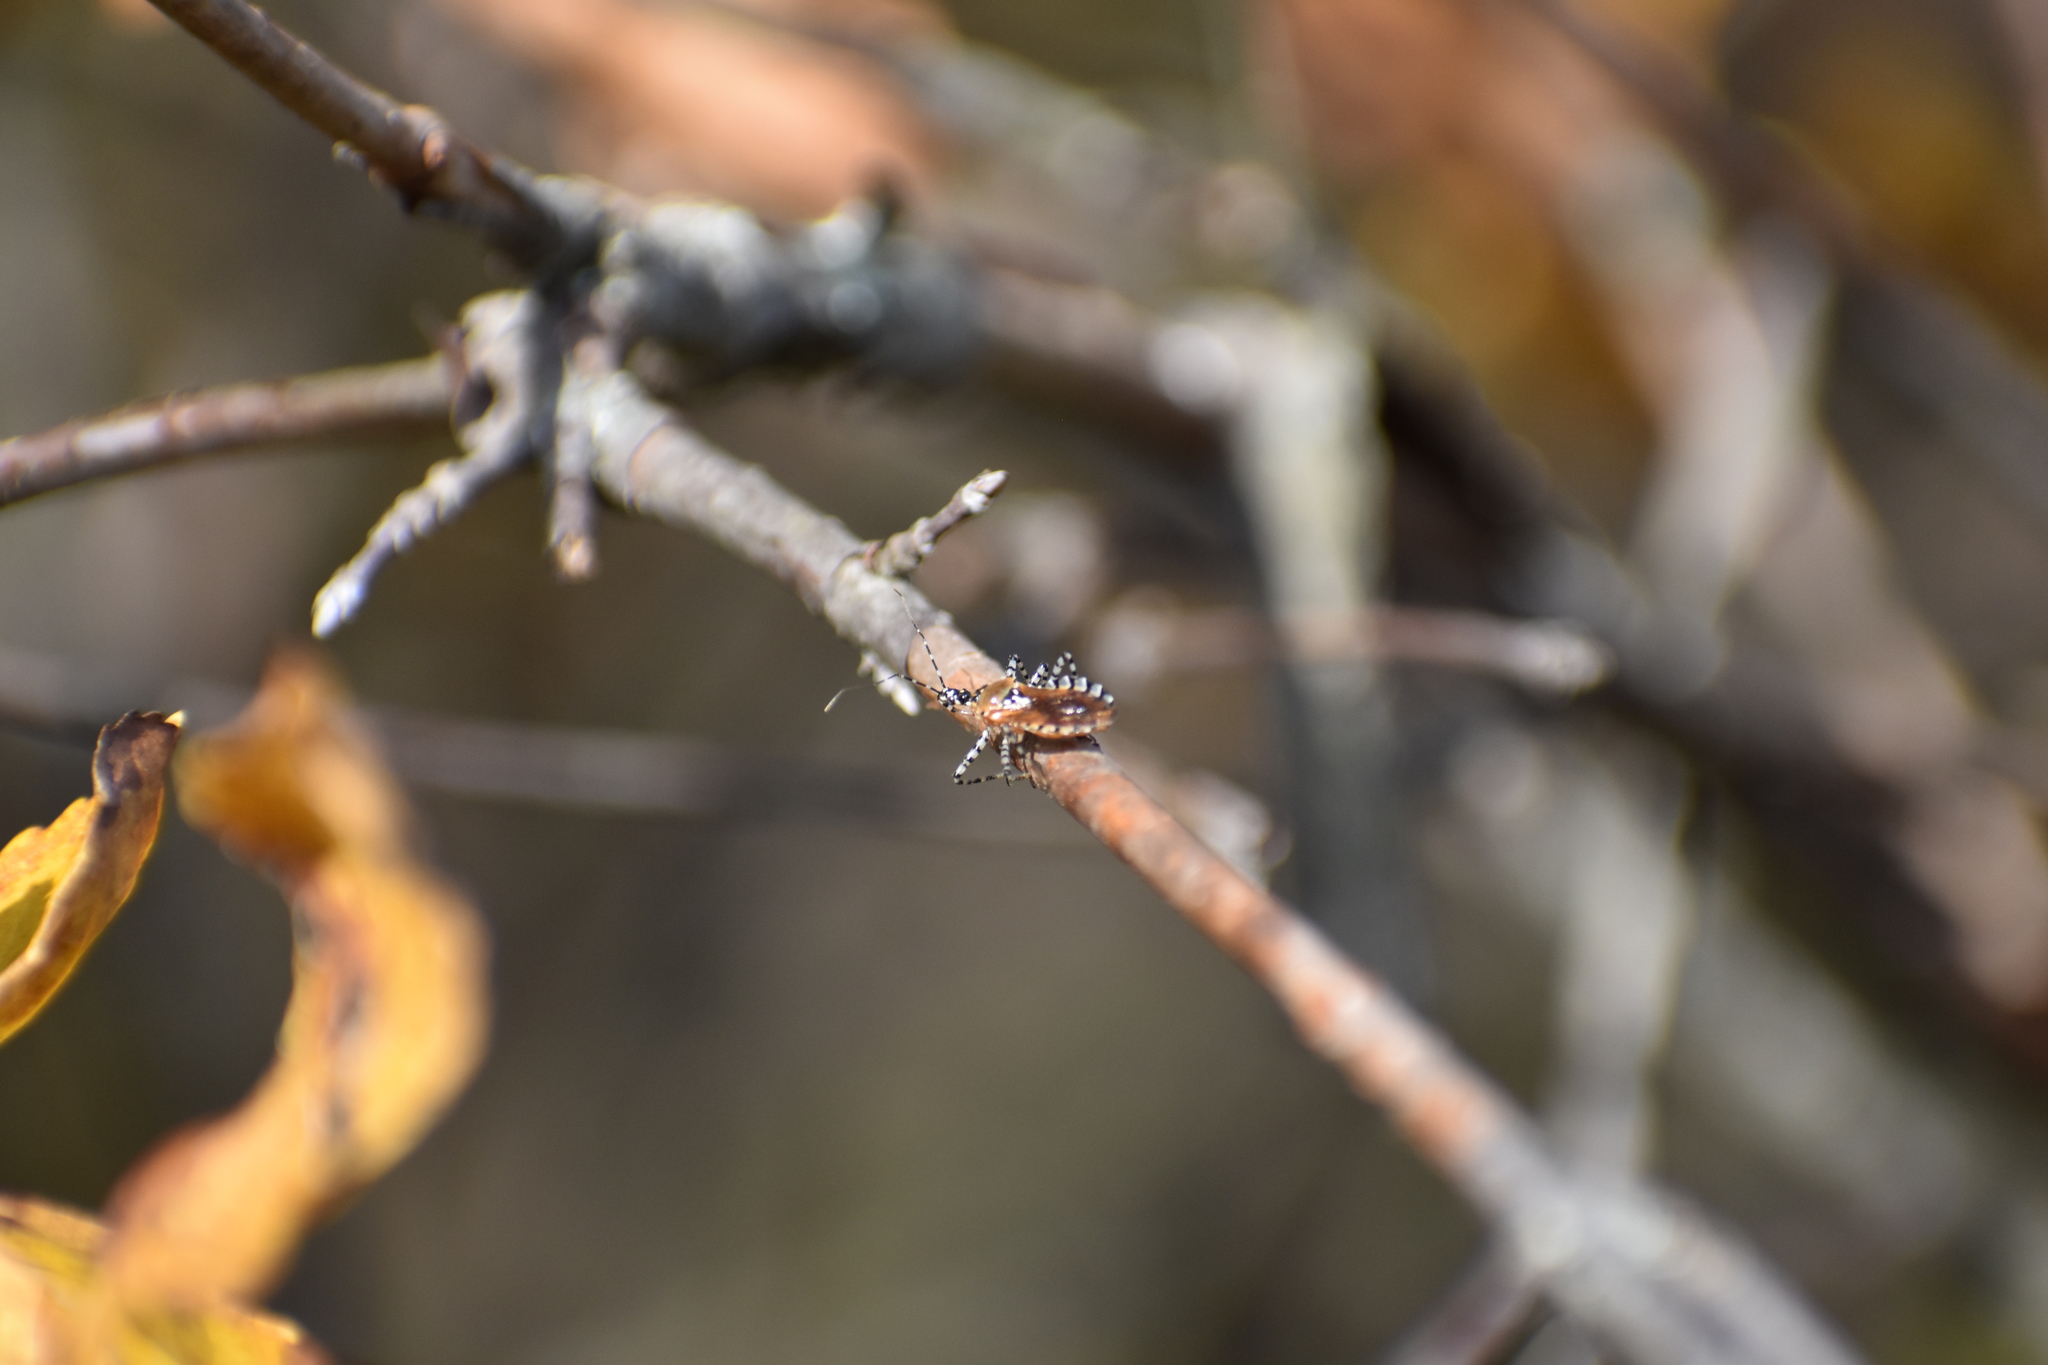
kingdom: Animalia
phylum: Arthropoda
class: Insecta
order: Hemiptera
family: Reduviidae
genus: Pselliopus
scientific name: Pselliopus cinctus
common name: Ringed assassin bug
